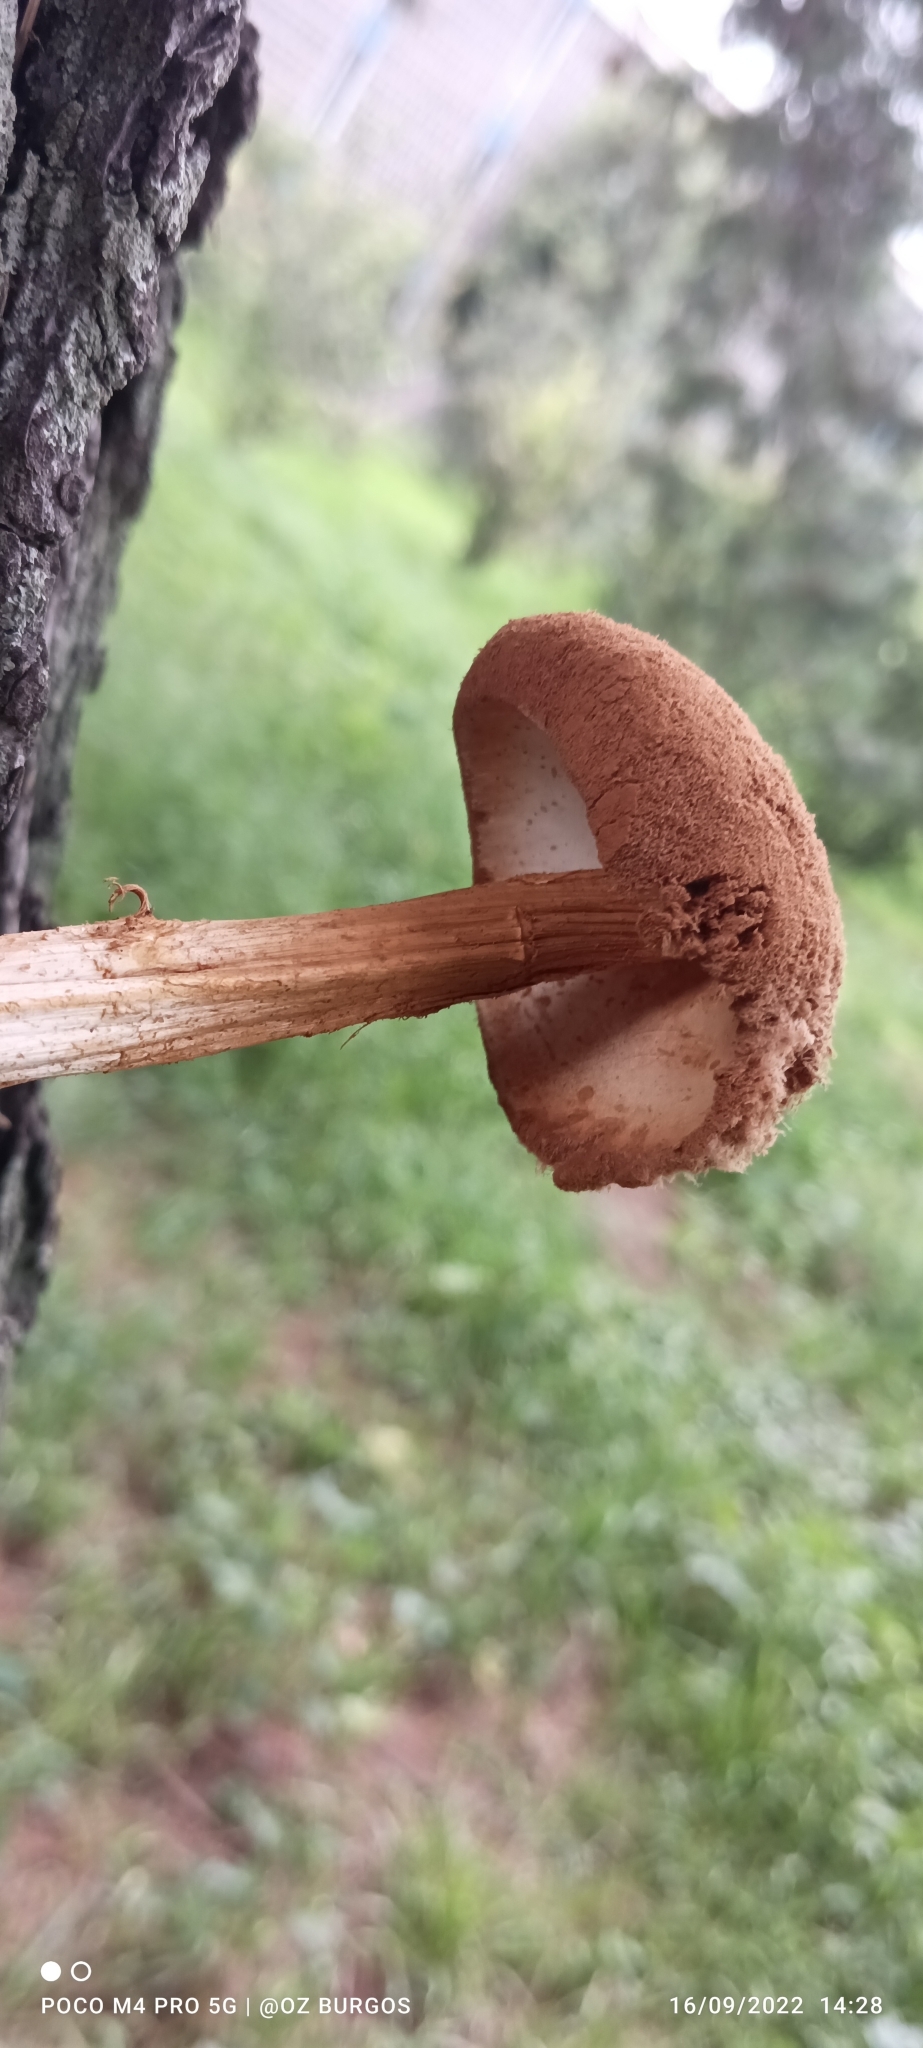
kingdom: Fungi
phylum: Basidiomycota
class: Agaricomycetes
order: Agaricales
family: Agaricaceae
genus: Battarrea
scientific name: Battarrea phalloides
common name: Sandy stiltball
